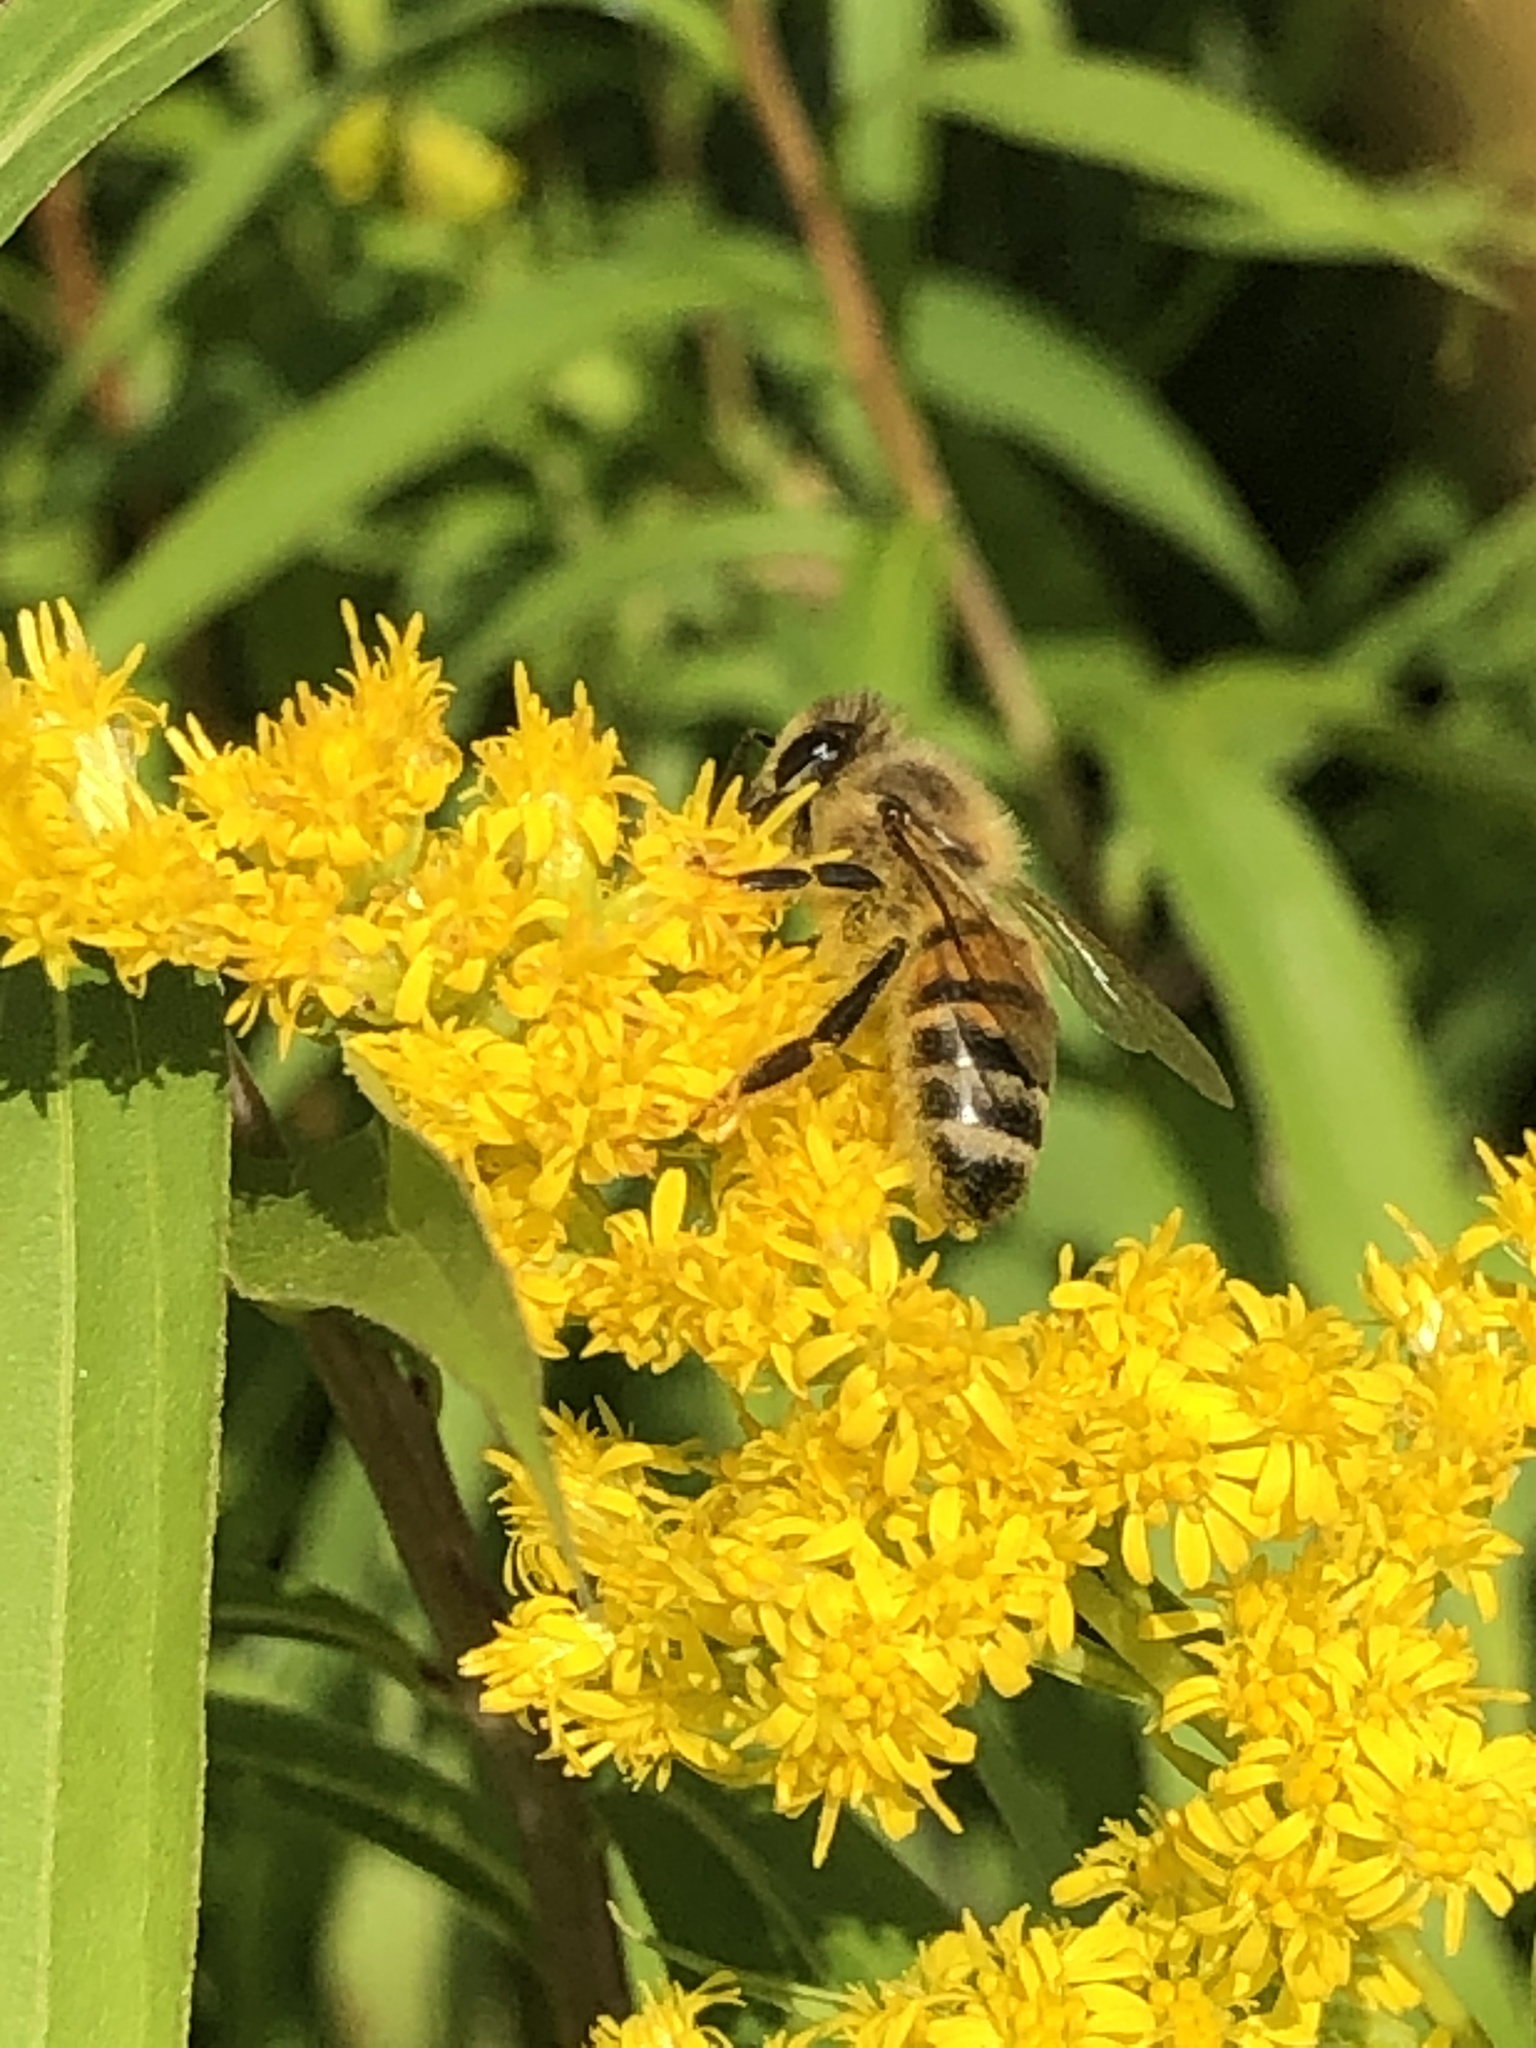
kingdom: Animalia
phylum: Arthropoda
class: Insecta
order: Hymenoptera
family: Apidae
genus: Apis
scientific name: Apis mellifera
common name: Honey bee
